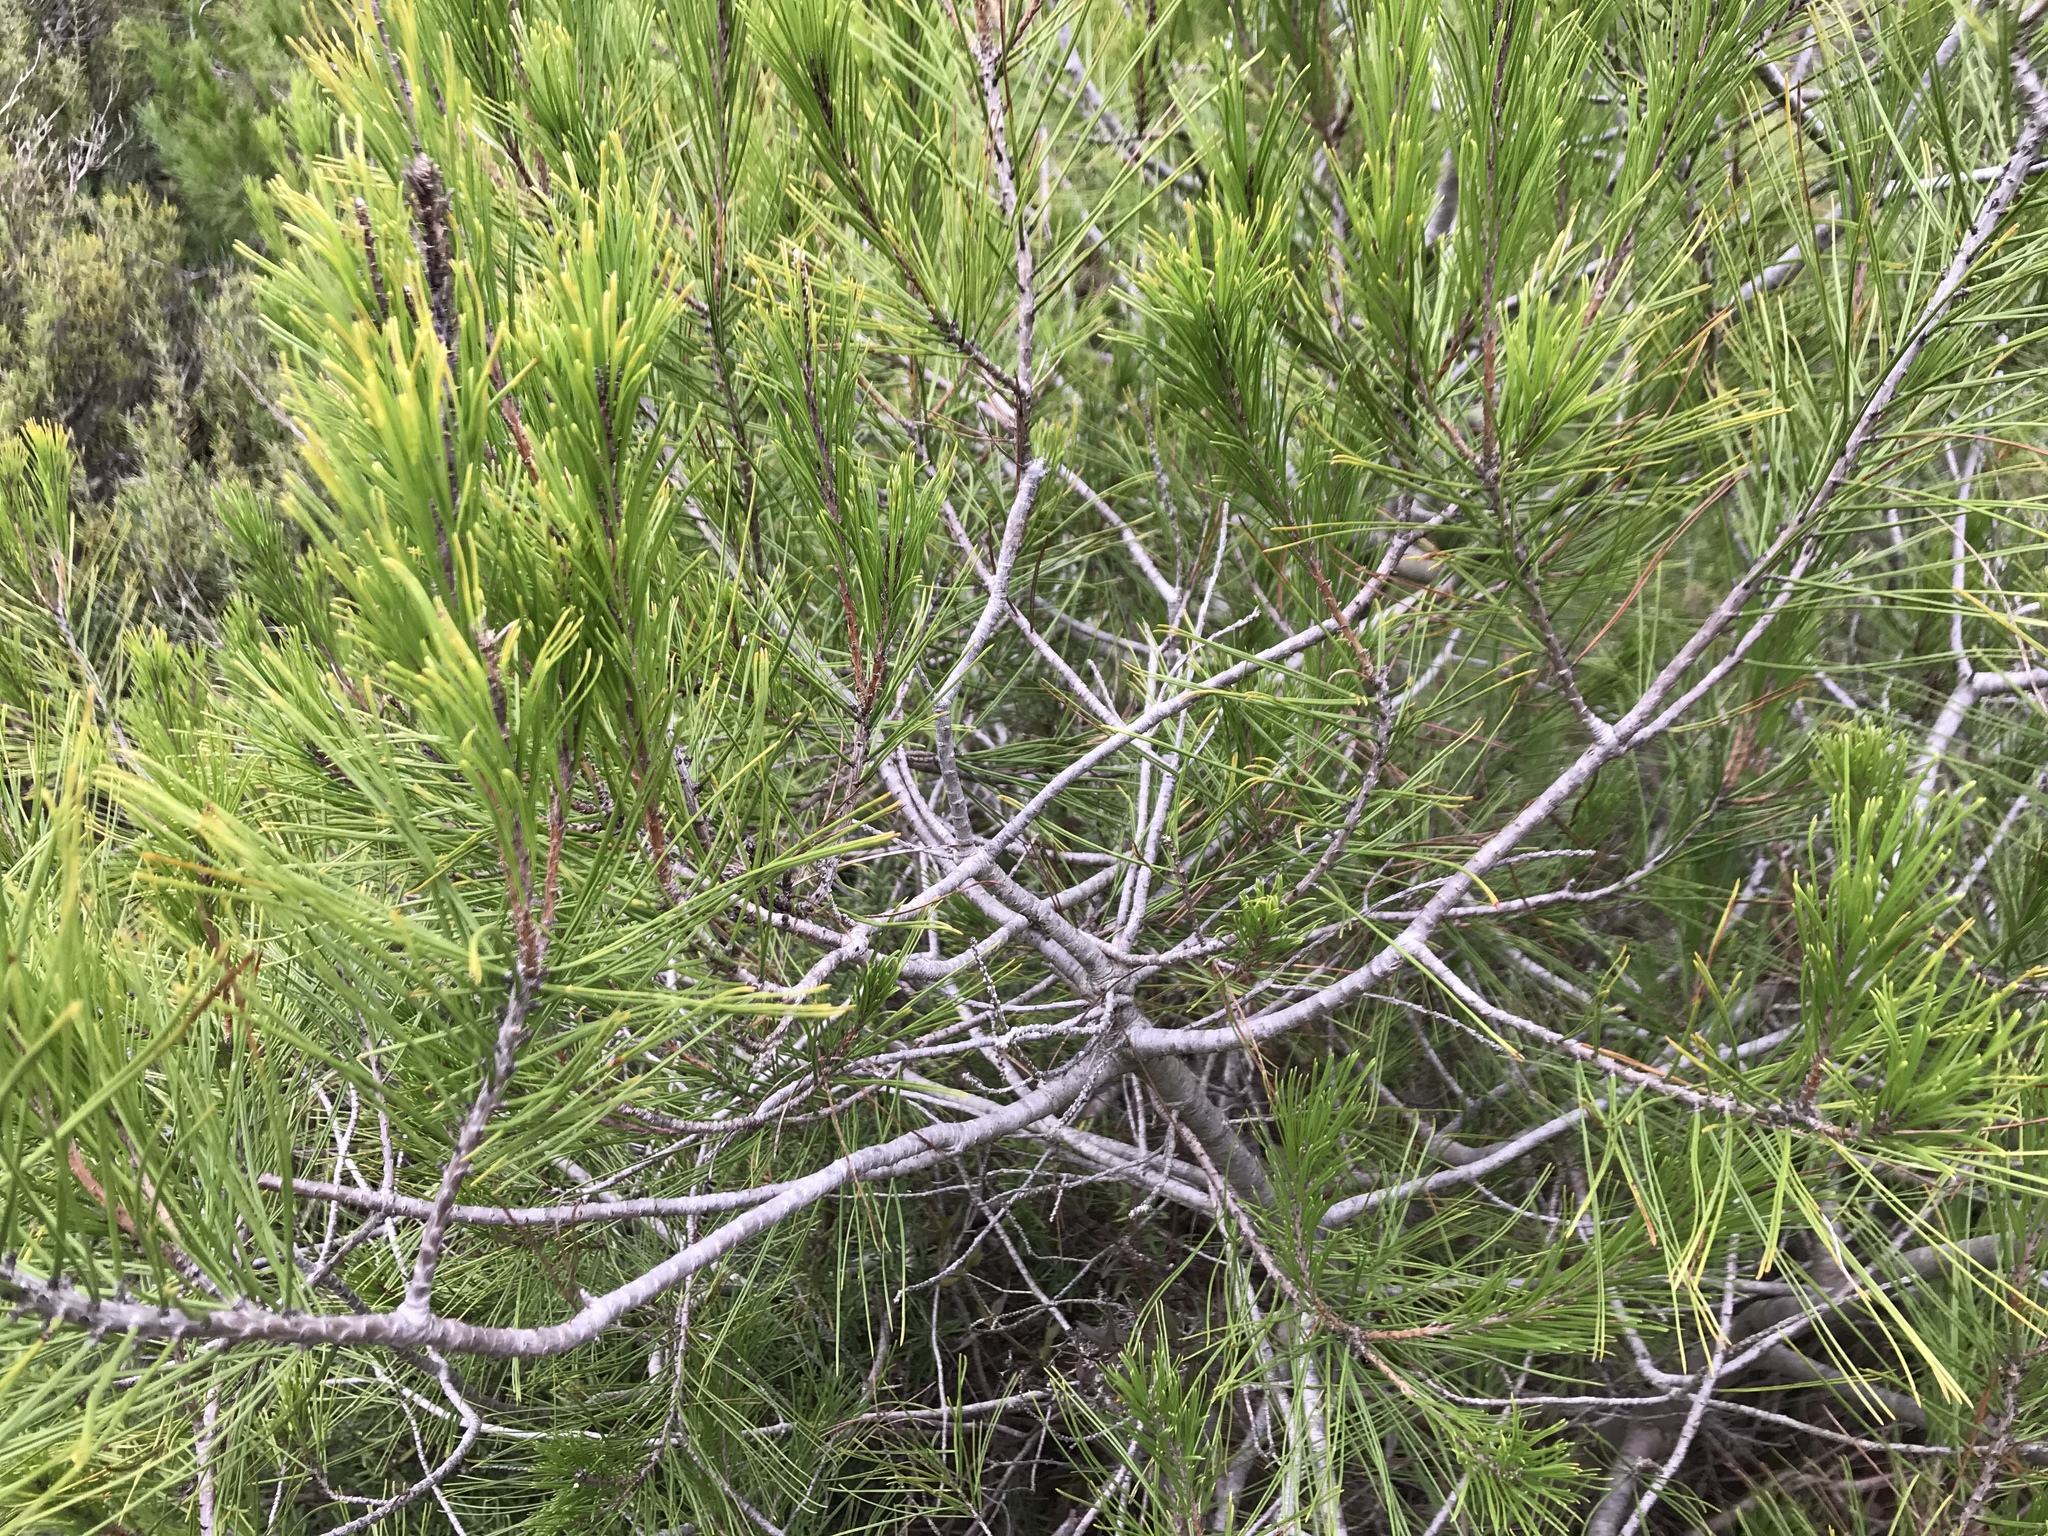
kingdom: Plantae
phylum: Tracheophyta
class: Pinopsida
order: Pinales
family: Pinaceae
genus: Pinus
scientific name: Pinus halepensis
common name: Aleppo pine
